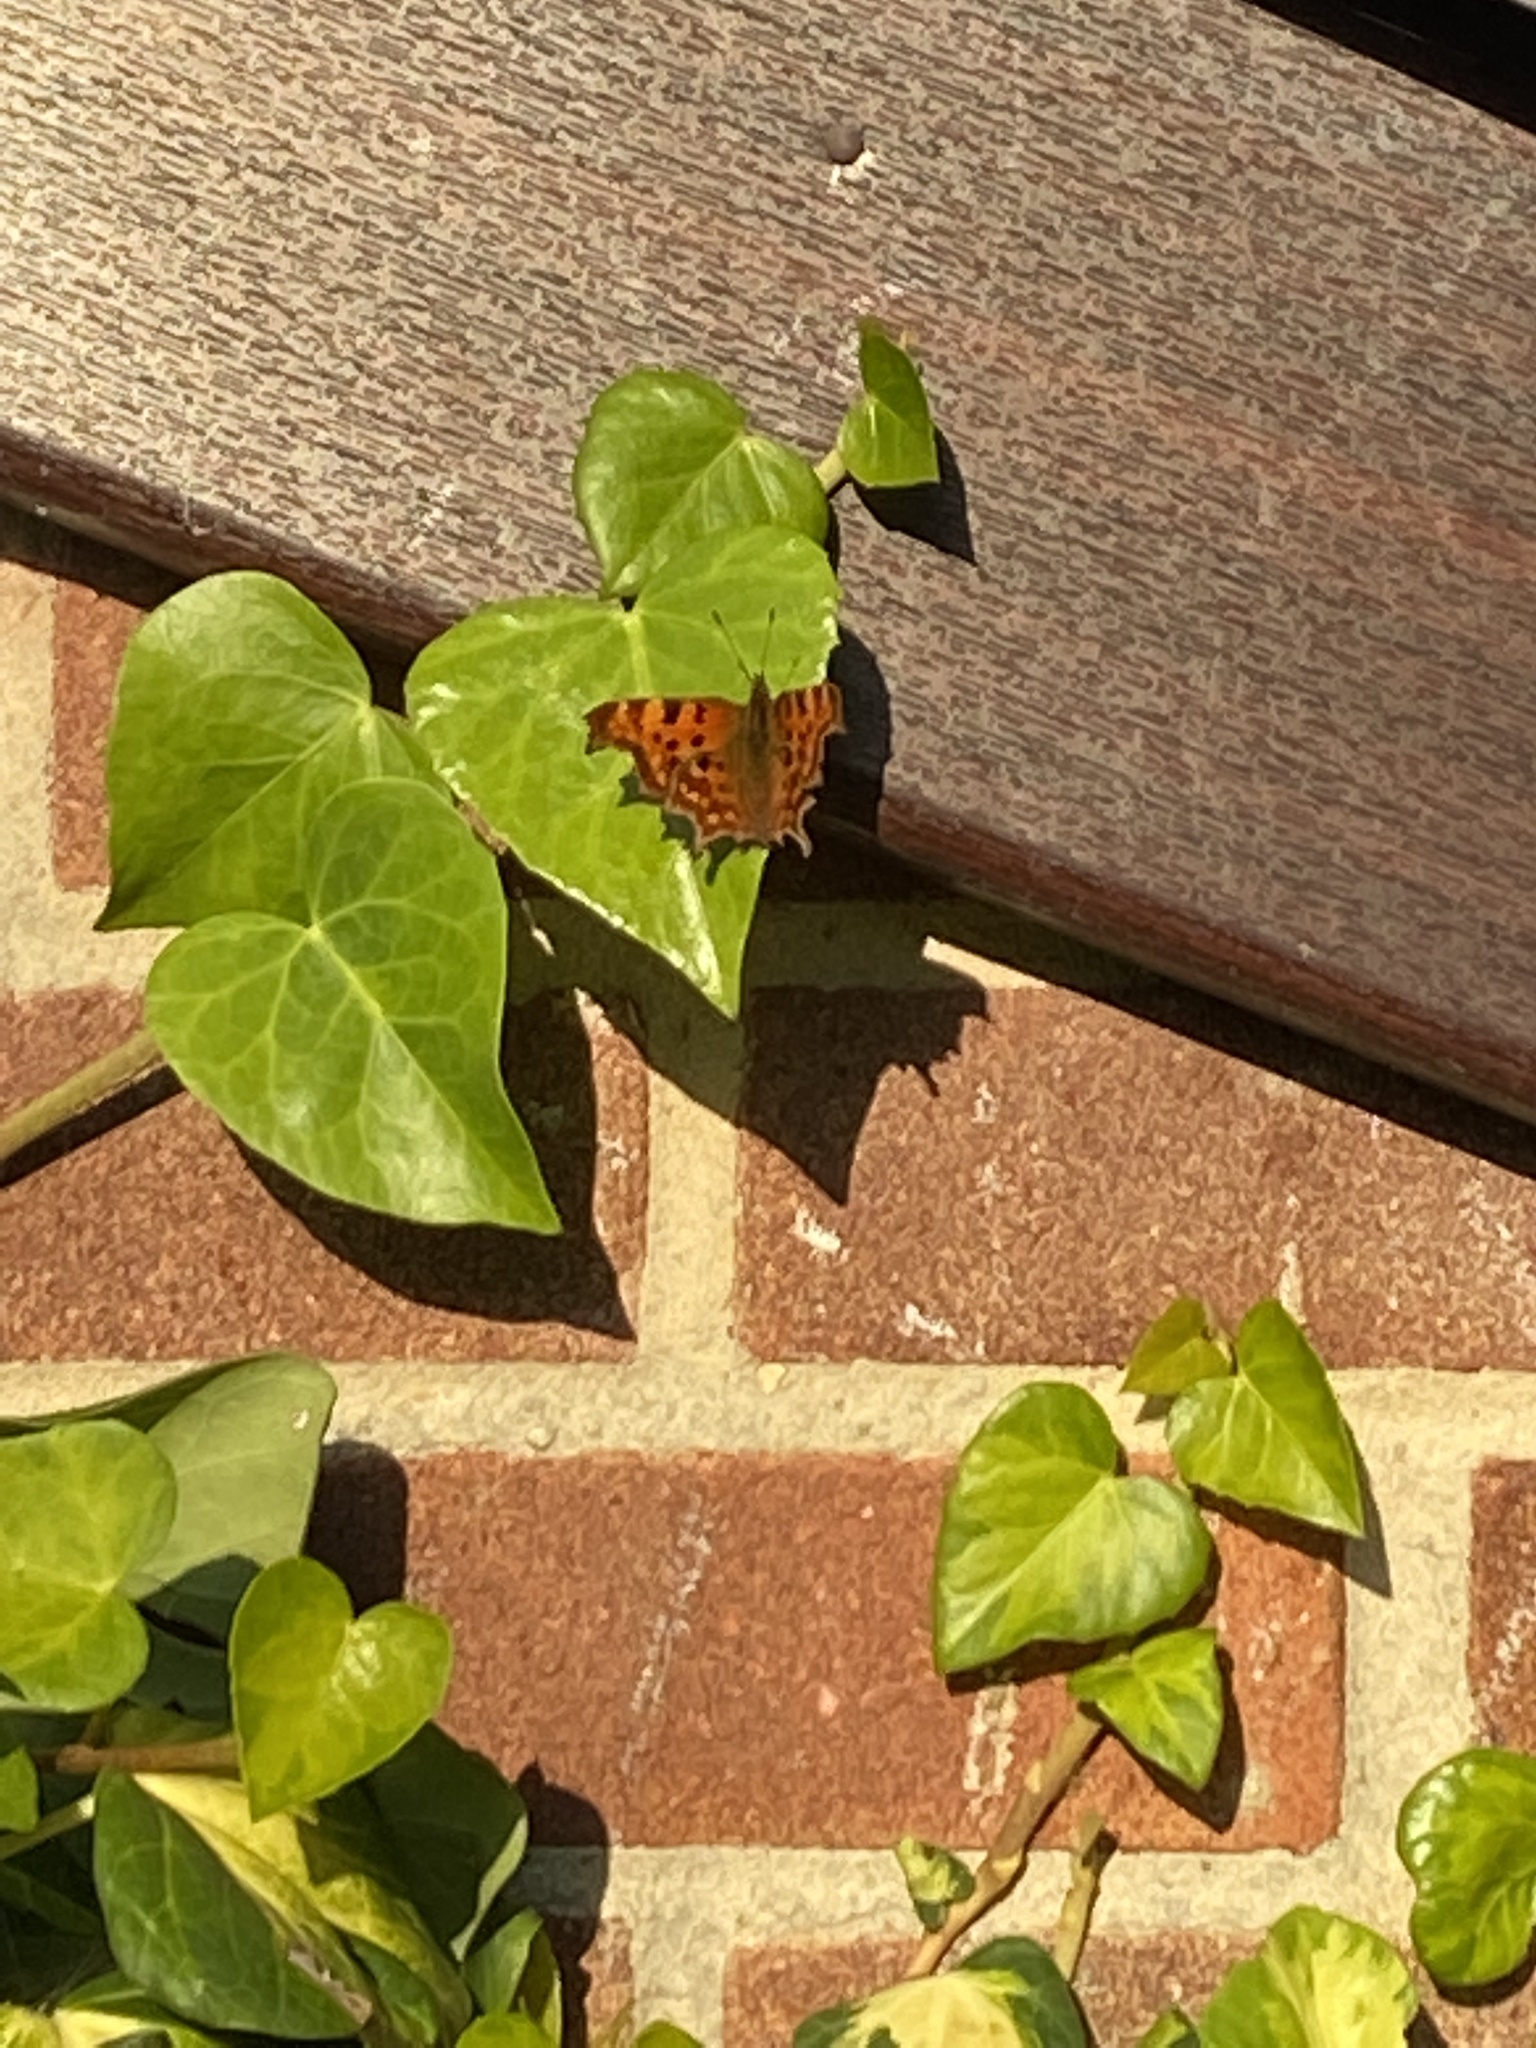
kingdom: Animalia
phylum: Arthropoda
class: Insecta
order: Lepidoptera
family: Nymphalidae
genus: Polygonia
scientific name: Polygonia c-album
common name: Comma
